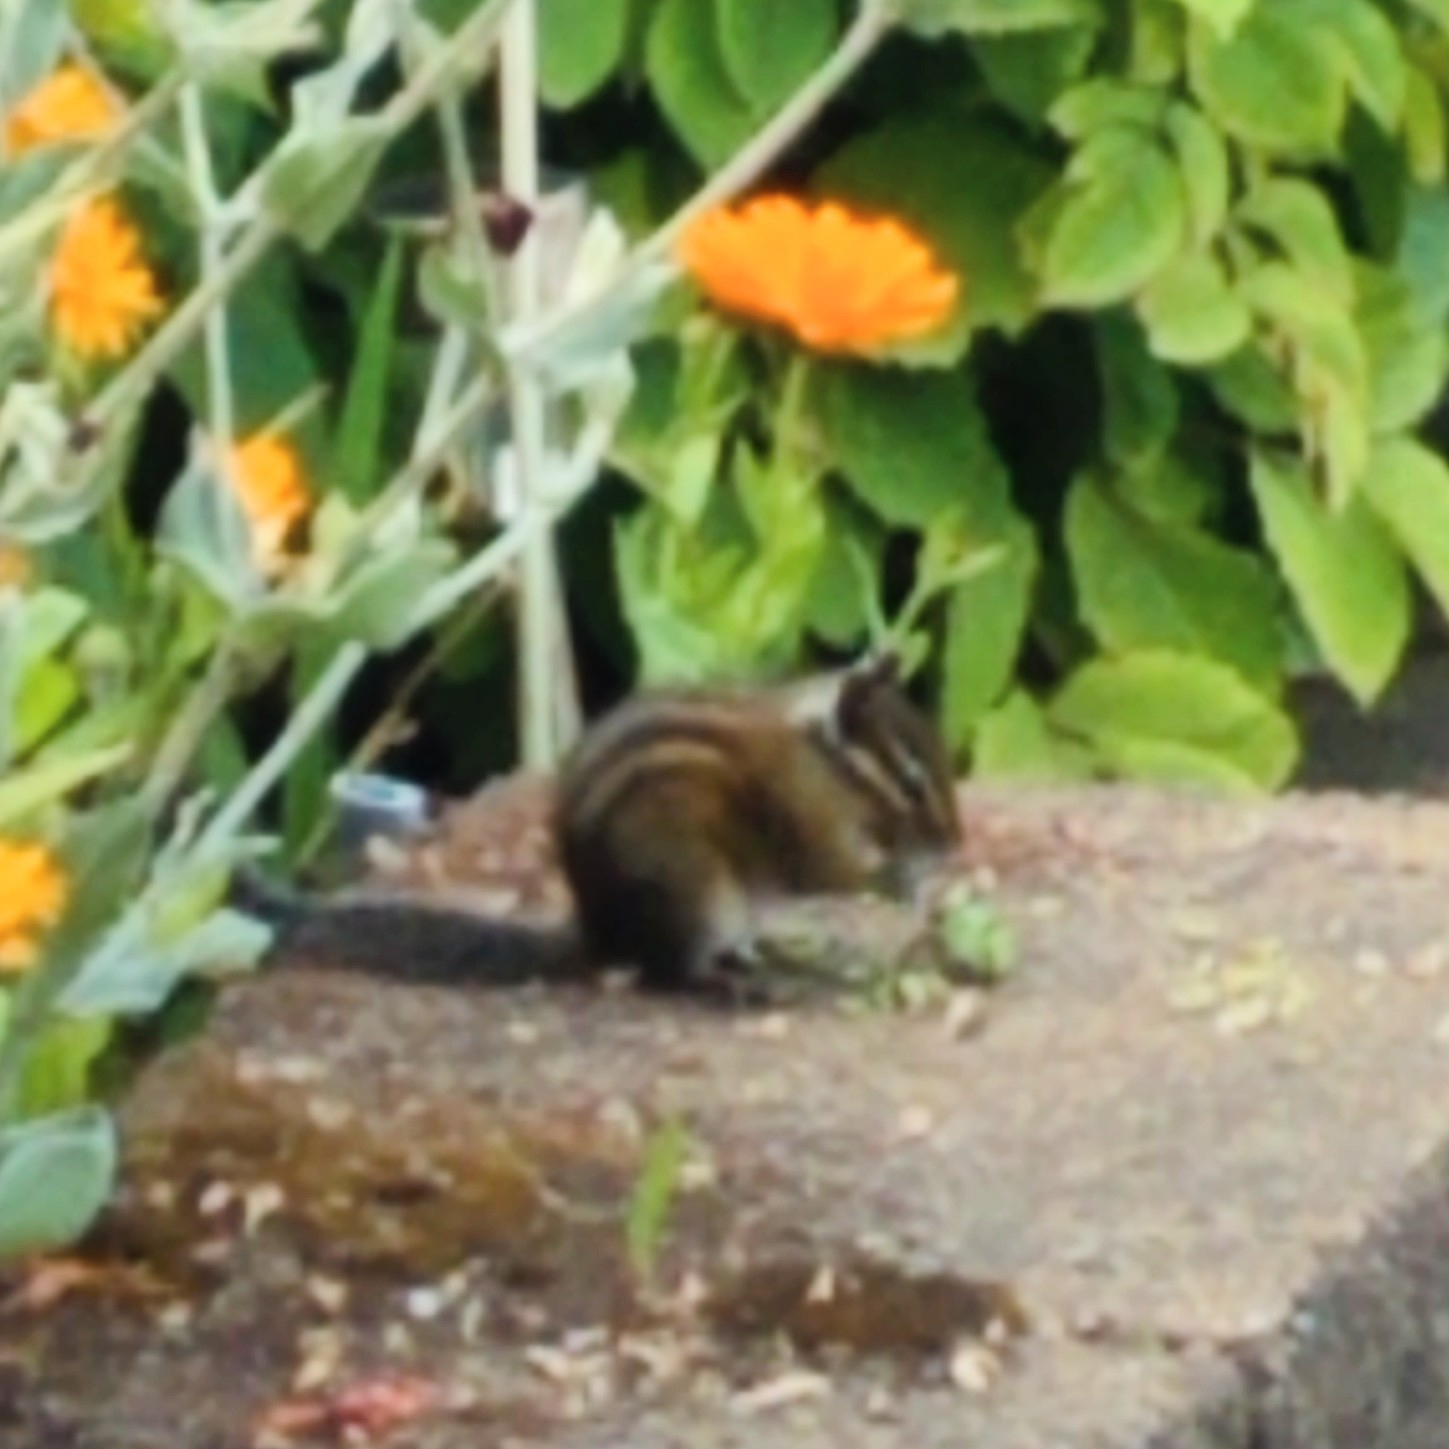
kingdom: Animalia
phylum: Chordata
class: Mammalia
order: Rodentia
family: Sciuridae
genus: Tamias
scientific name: Tamias townsendii
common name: Townsend's chipmunk
